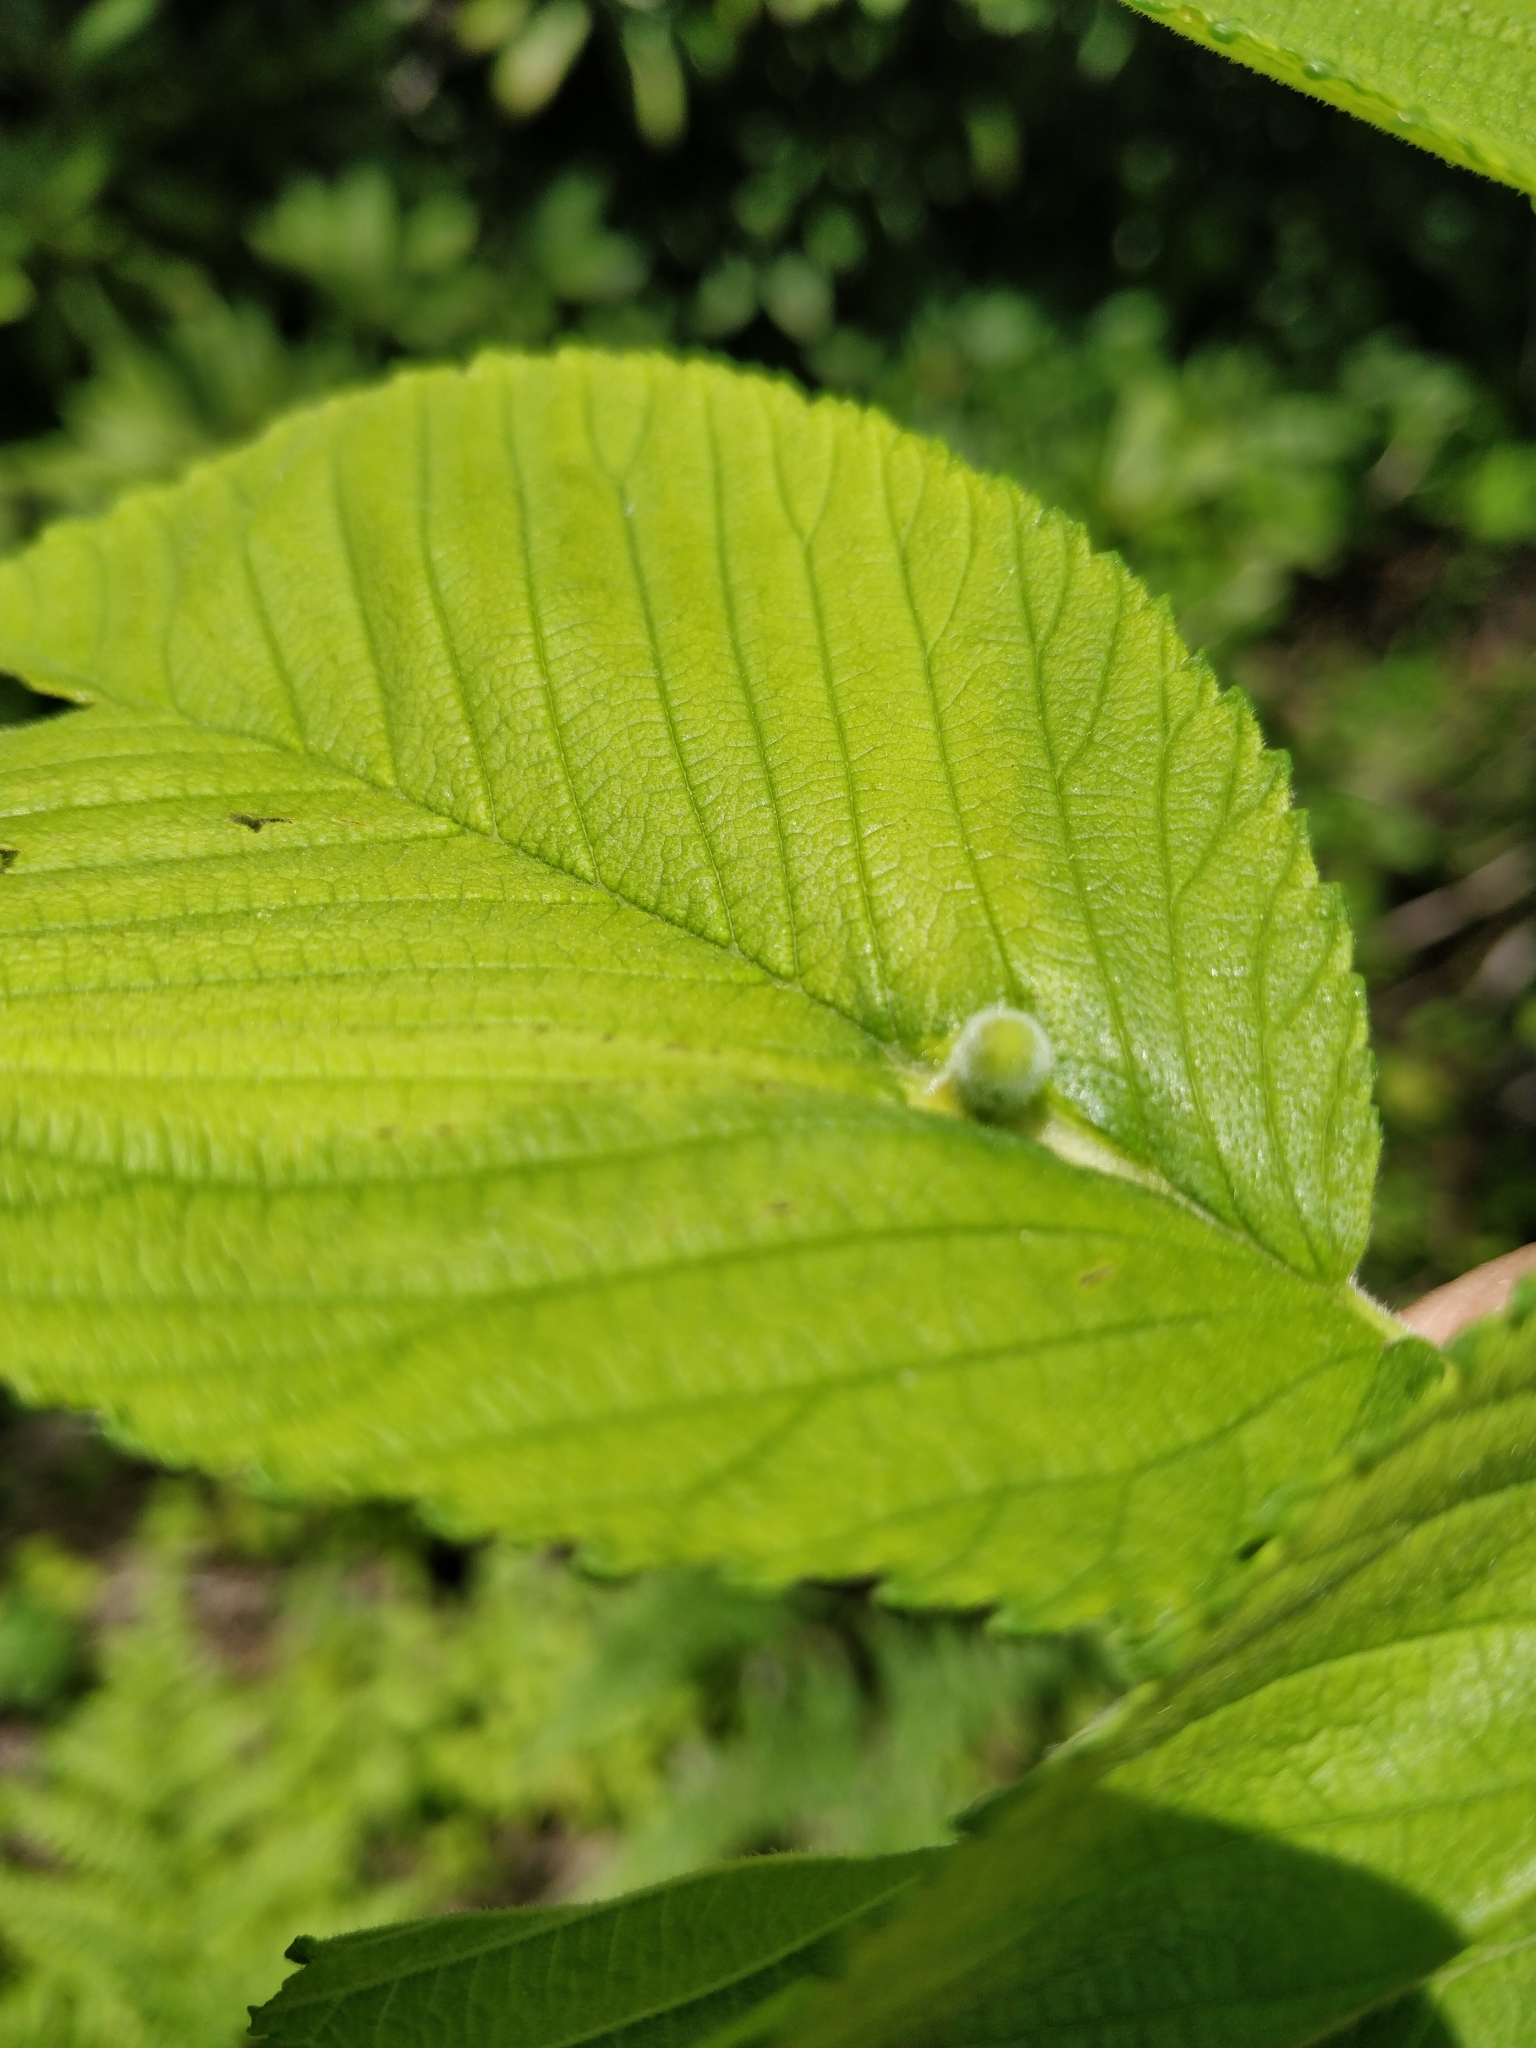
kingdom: Animalia
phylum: Arthropoda
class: Insecta
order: Hemiptera
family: Aphididae
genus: Kaltenbachiella
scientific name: Kaltenbachiella ulmifusa
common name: Elm pouchgall aphid
